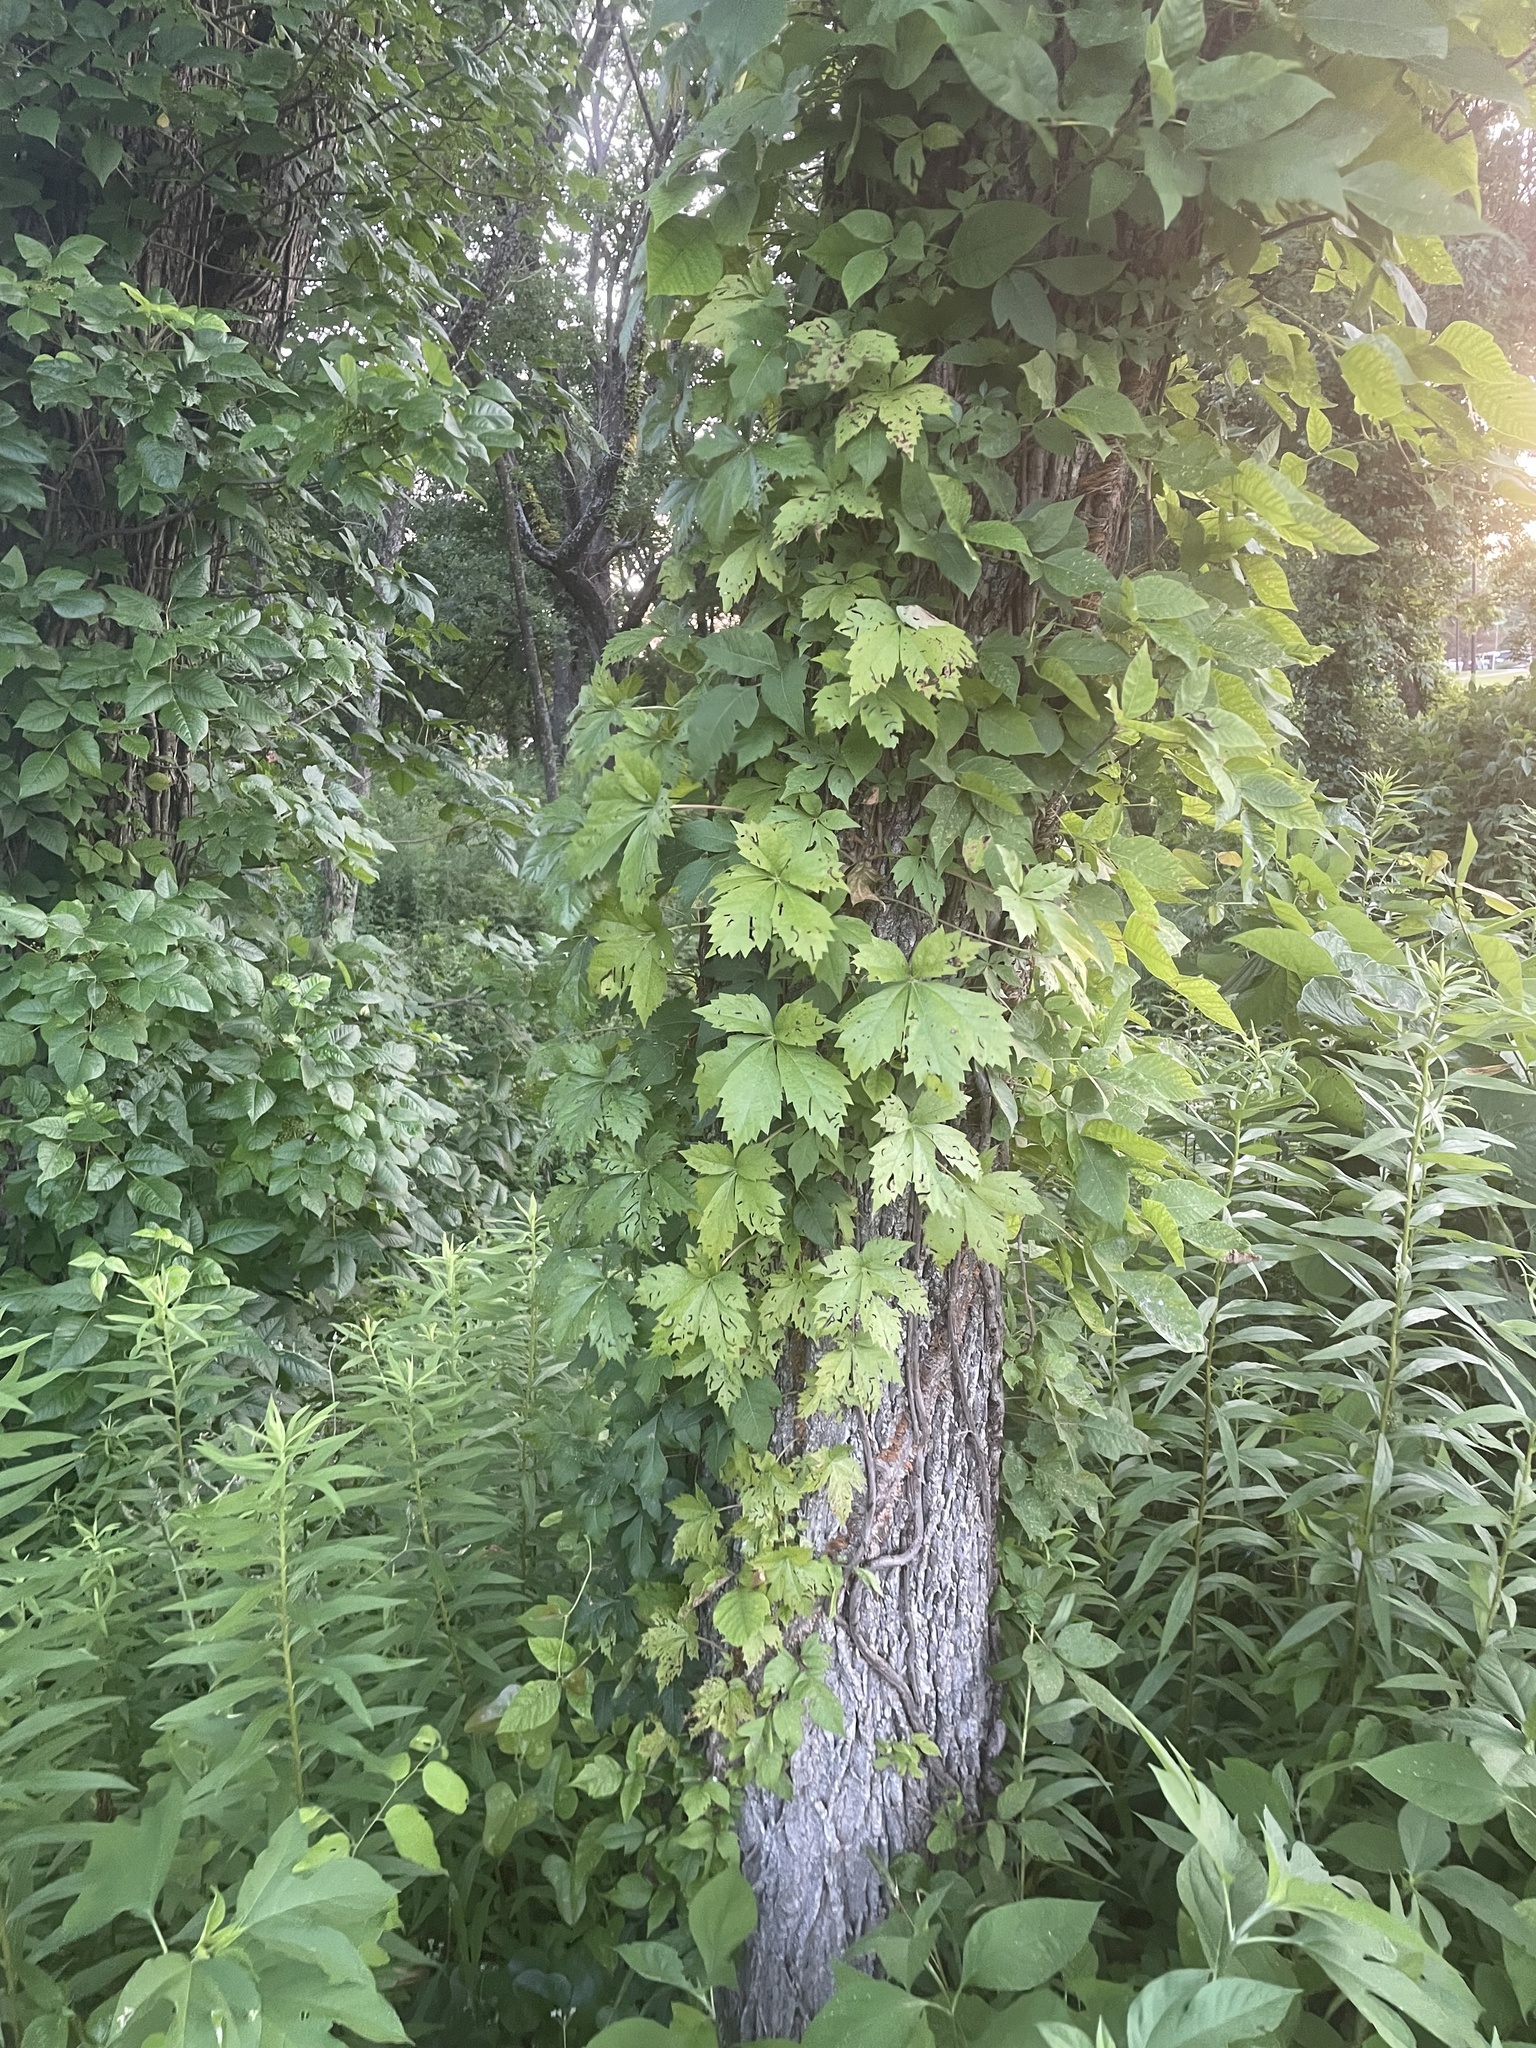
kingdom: Plantae
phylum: Tracheophyta
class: Magnoliopsida
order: Vitales
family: Vitaceae
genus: Parthenocissus
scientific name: Parthenocissus quinquefolia
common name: Virginia-creeper
